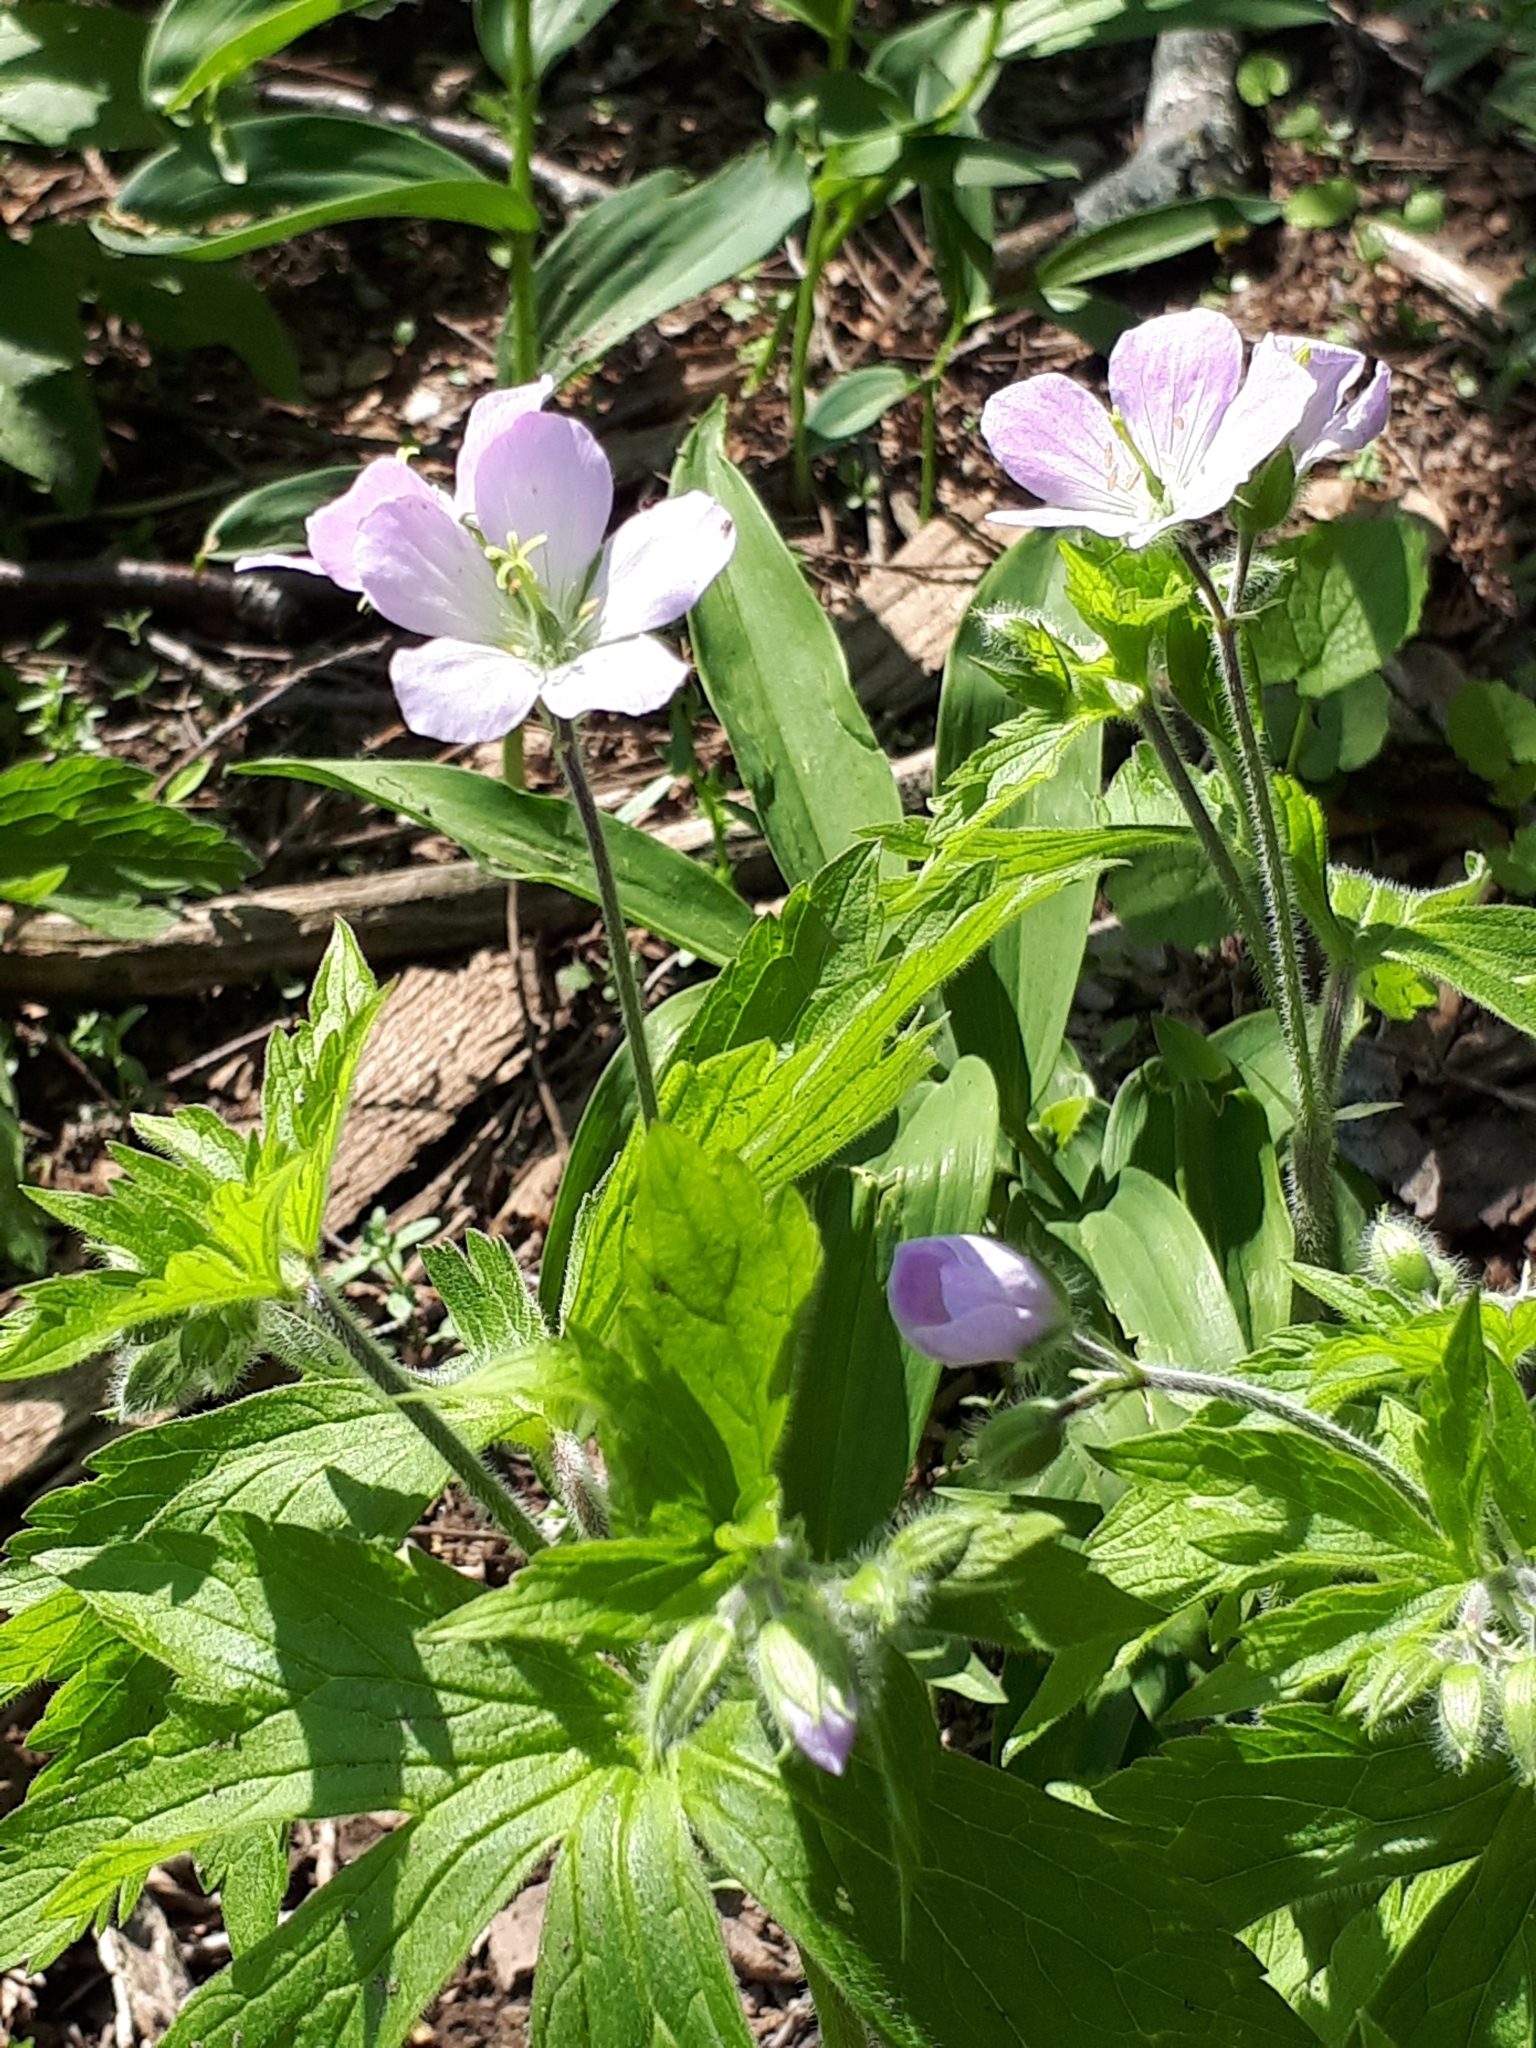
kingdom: Plantae
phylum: Tracheophyta
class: Magnoliopsida
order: Geraniales
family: Geraniaceae
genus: Geranium
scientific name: Geranium maculatum
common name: Spotted geranium
